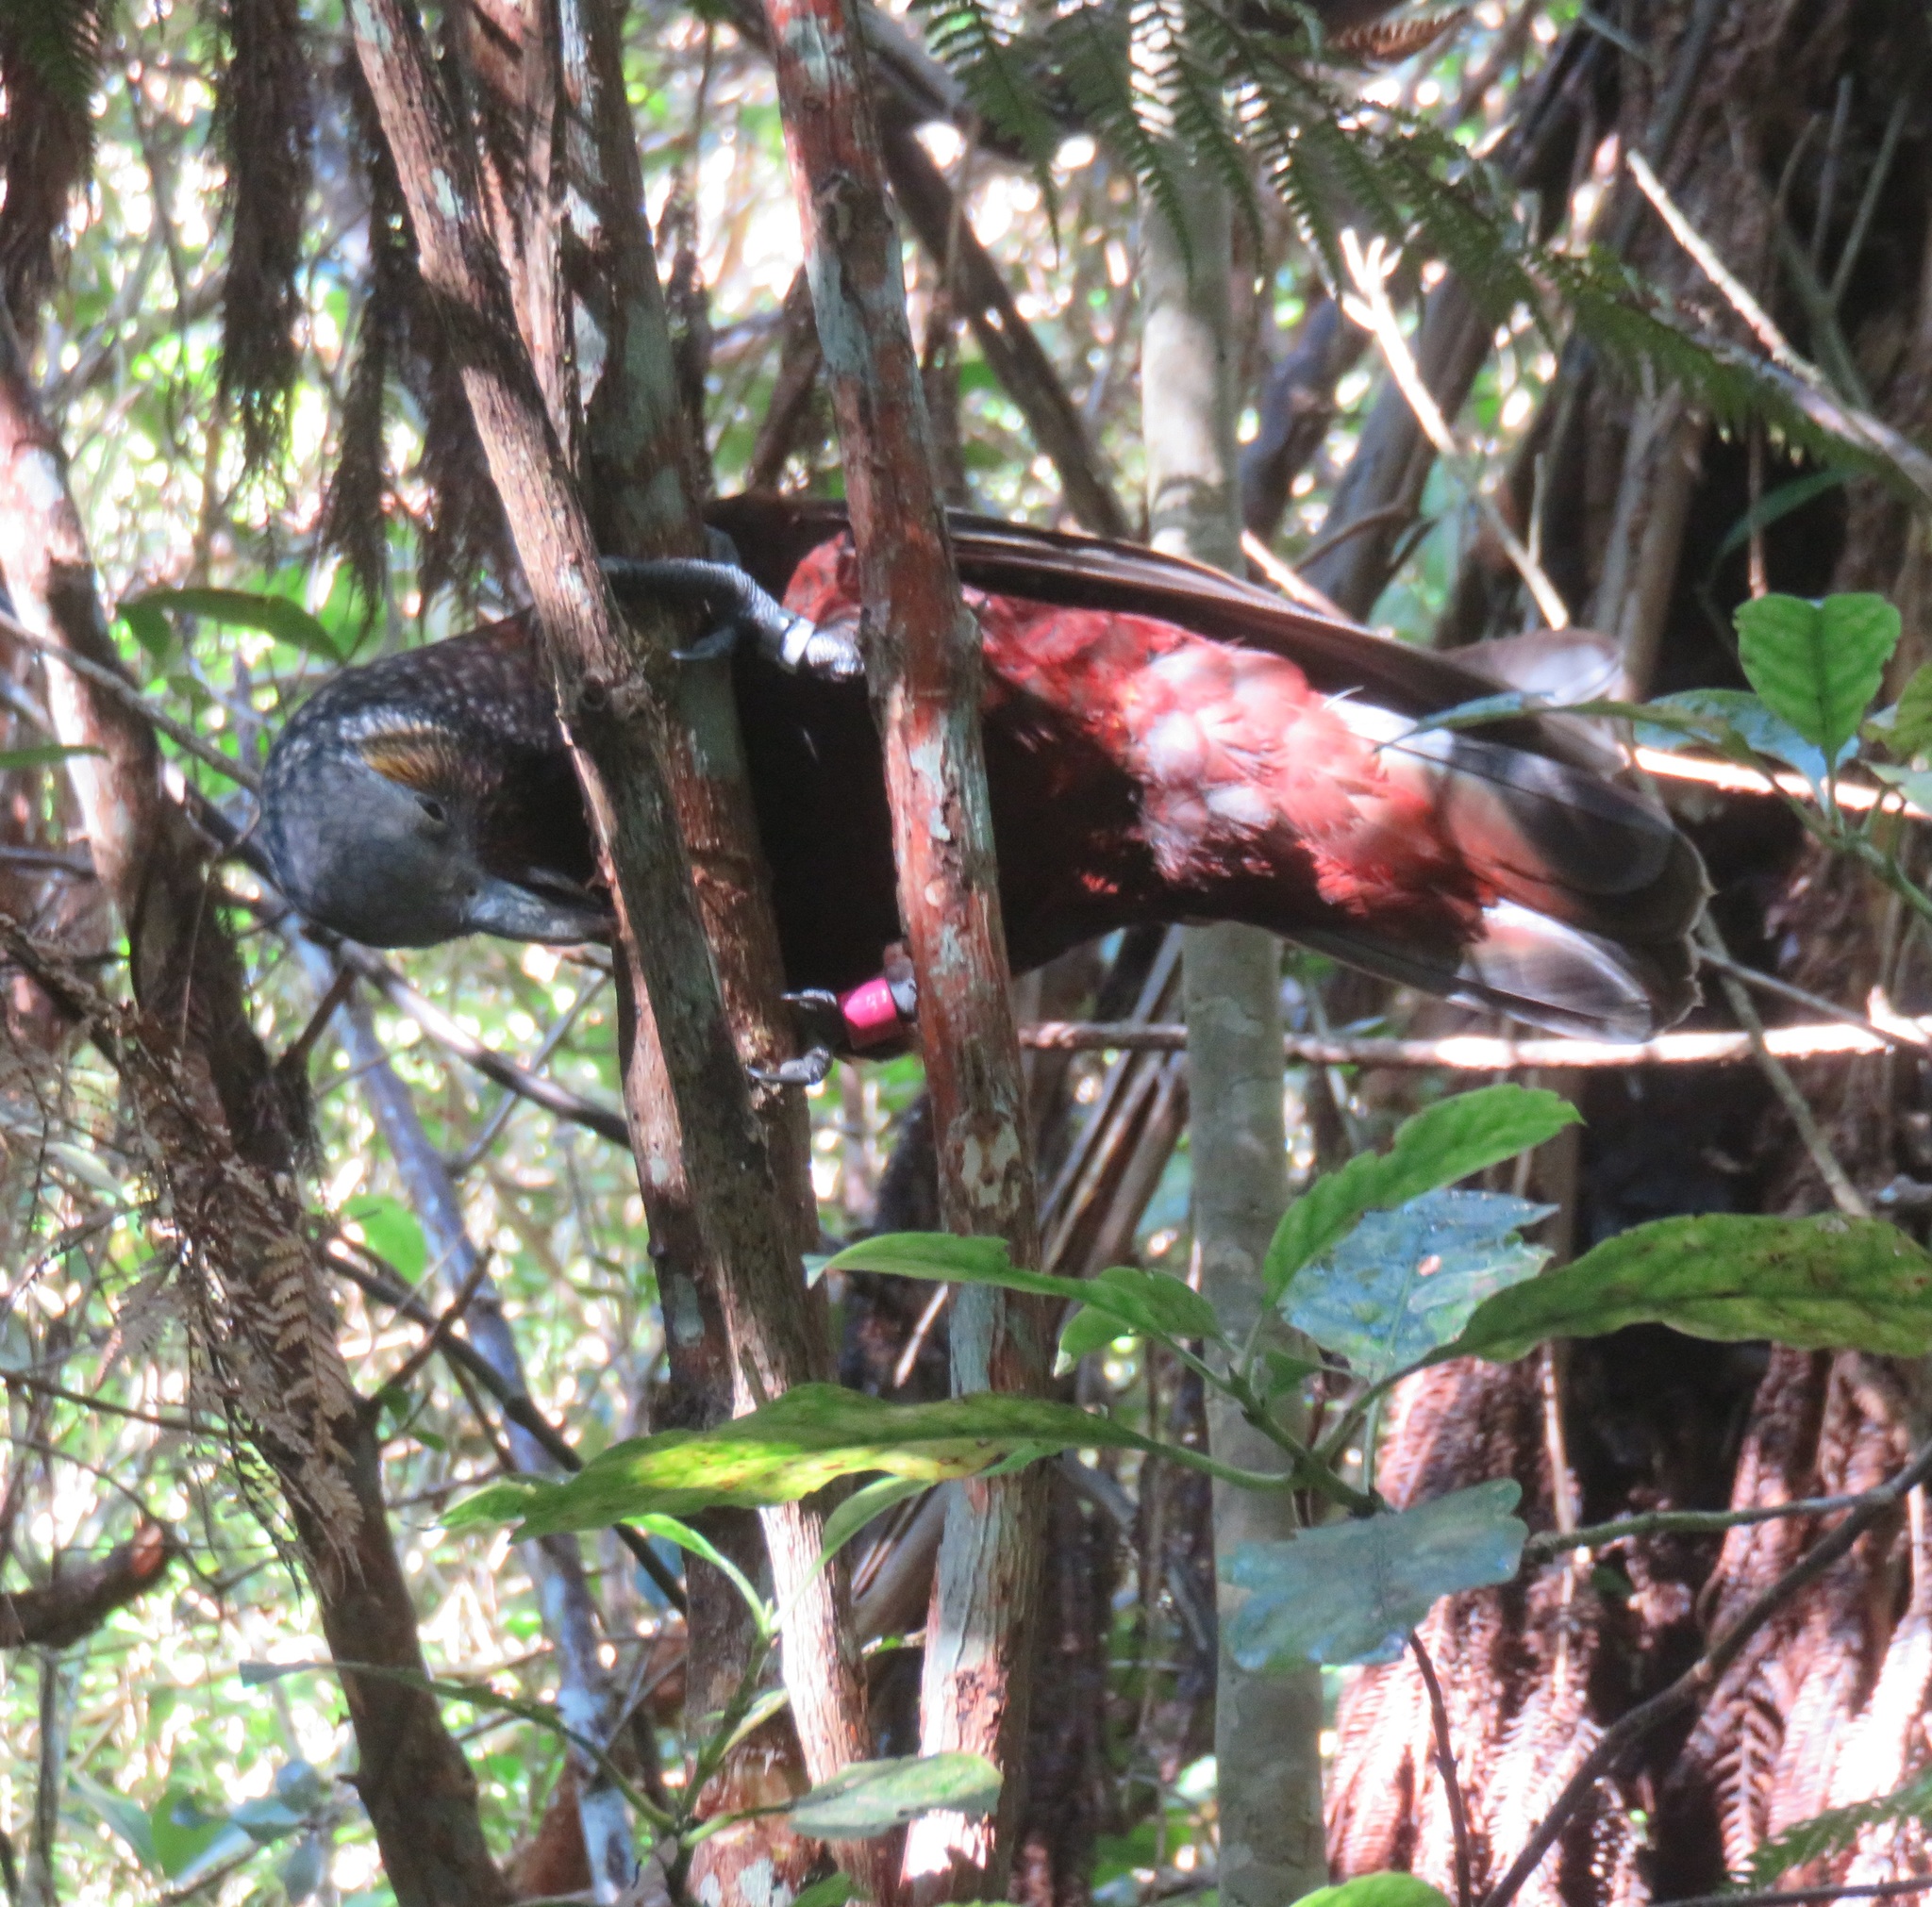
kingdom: Animalia
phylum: Chordata
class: Aves
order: Psittaciformes
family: Psittacidae
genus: Nestor
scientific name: Nestor meridionalis
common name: New zealand kaka
